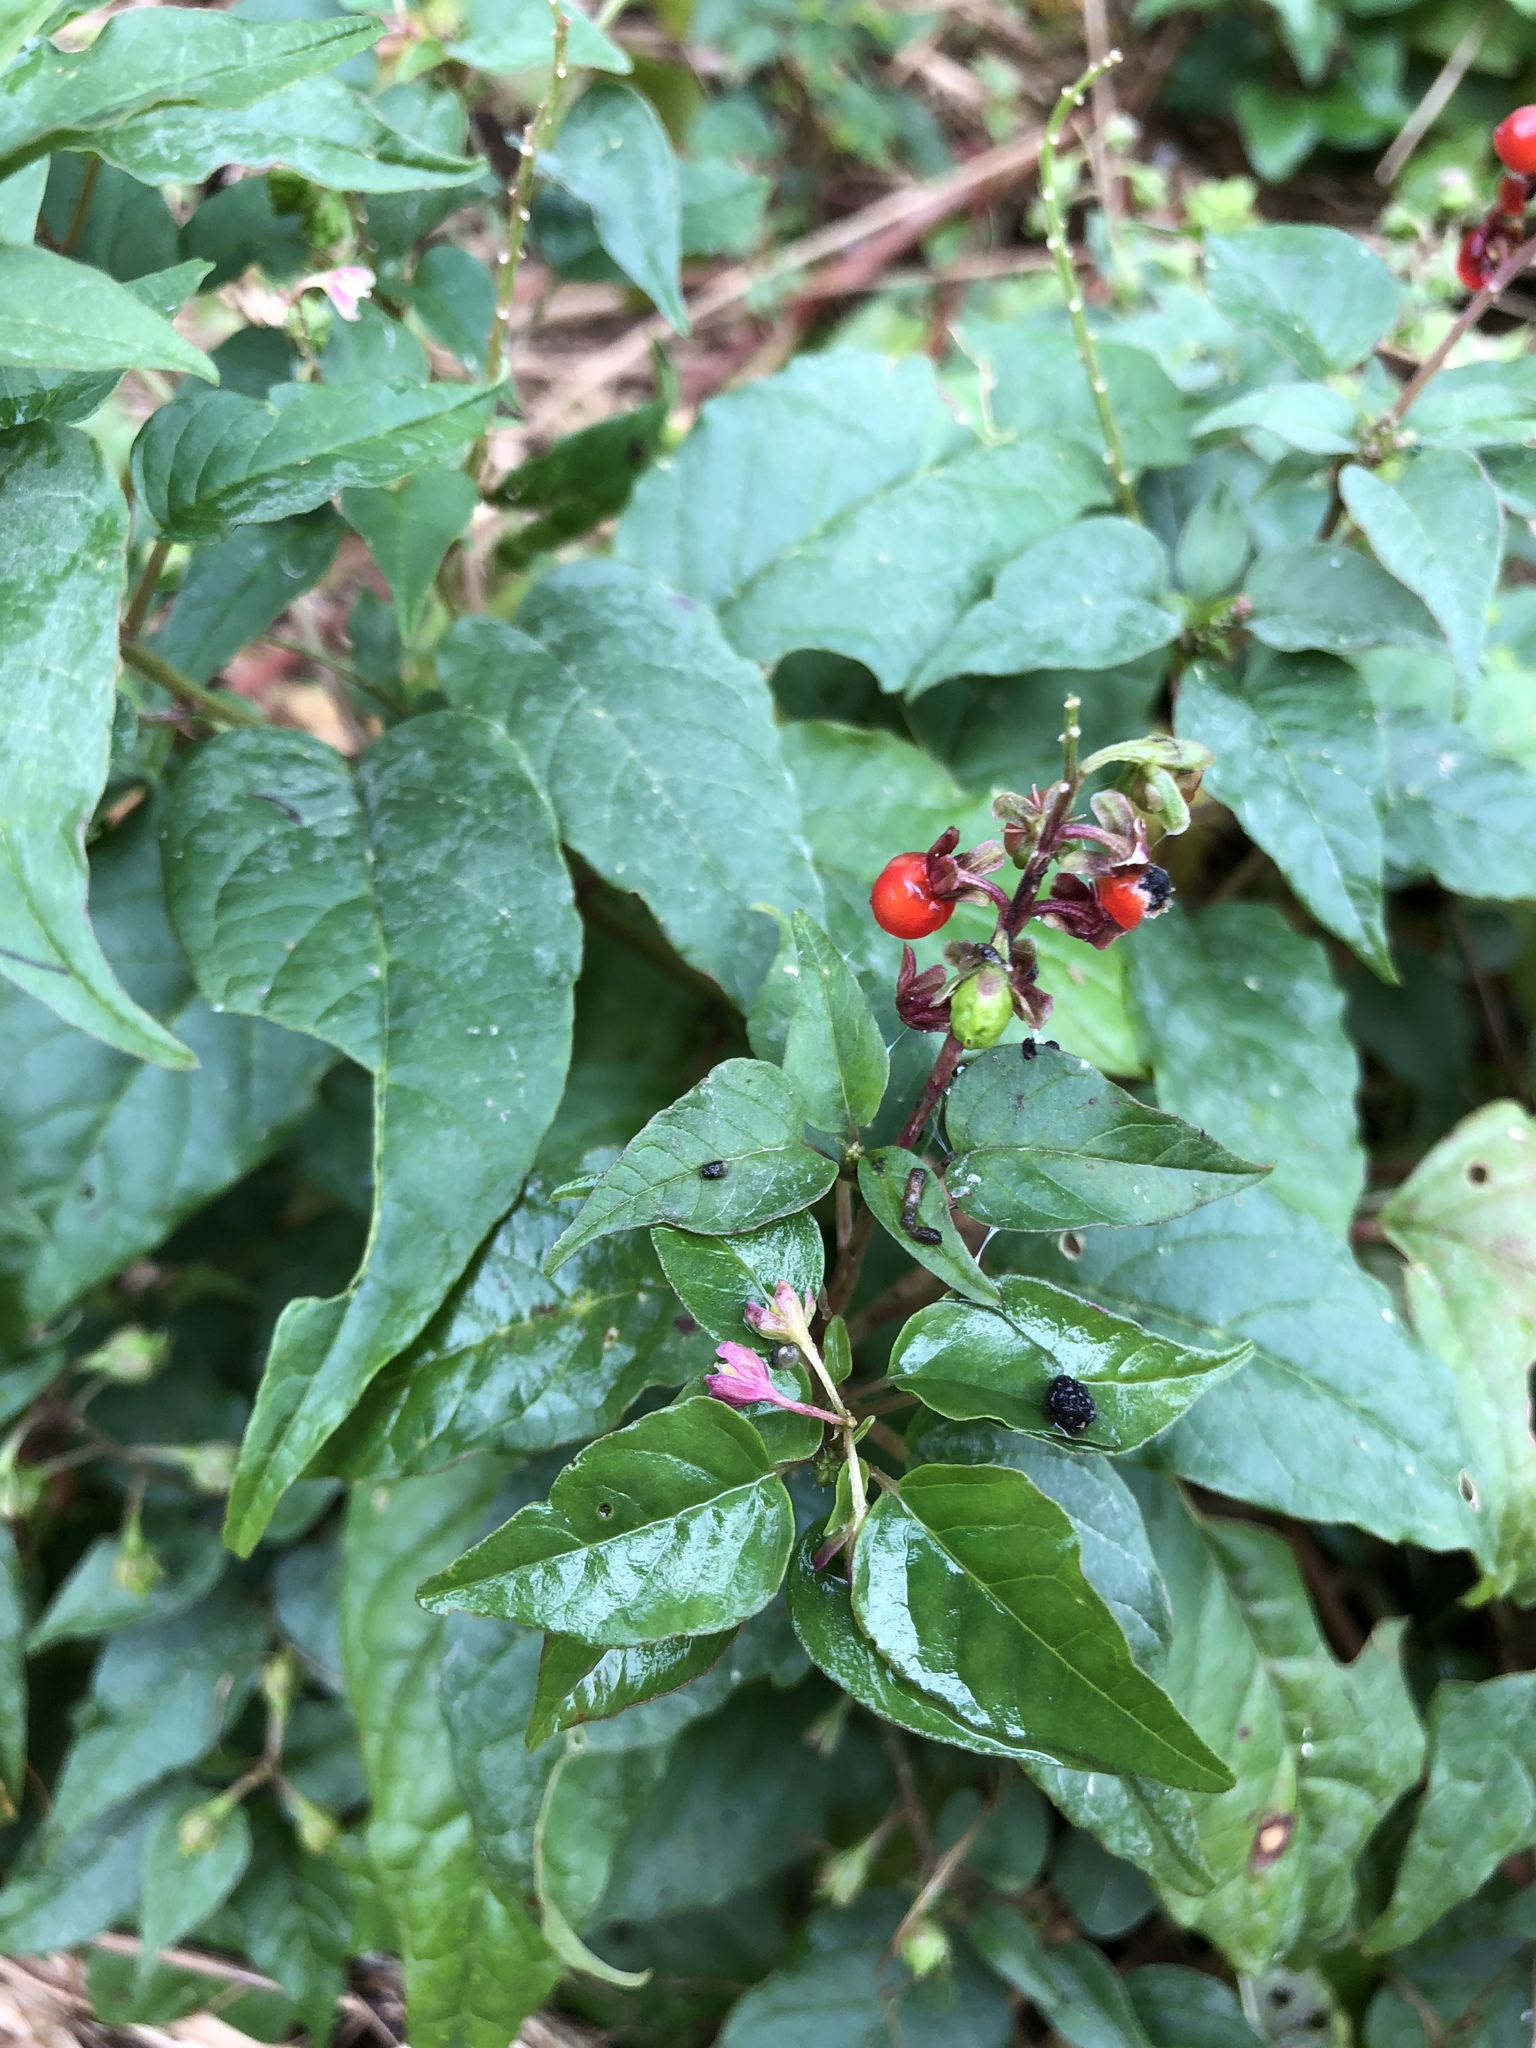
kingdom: Plantae
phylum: Tracheophyta
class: Magnoliopsida
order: Caryophyllales
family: Phytolaccaceae
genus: Rivina
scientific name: Rivina humilis
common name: Rougeplant
